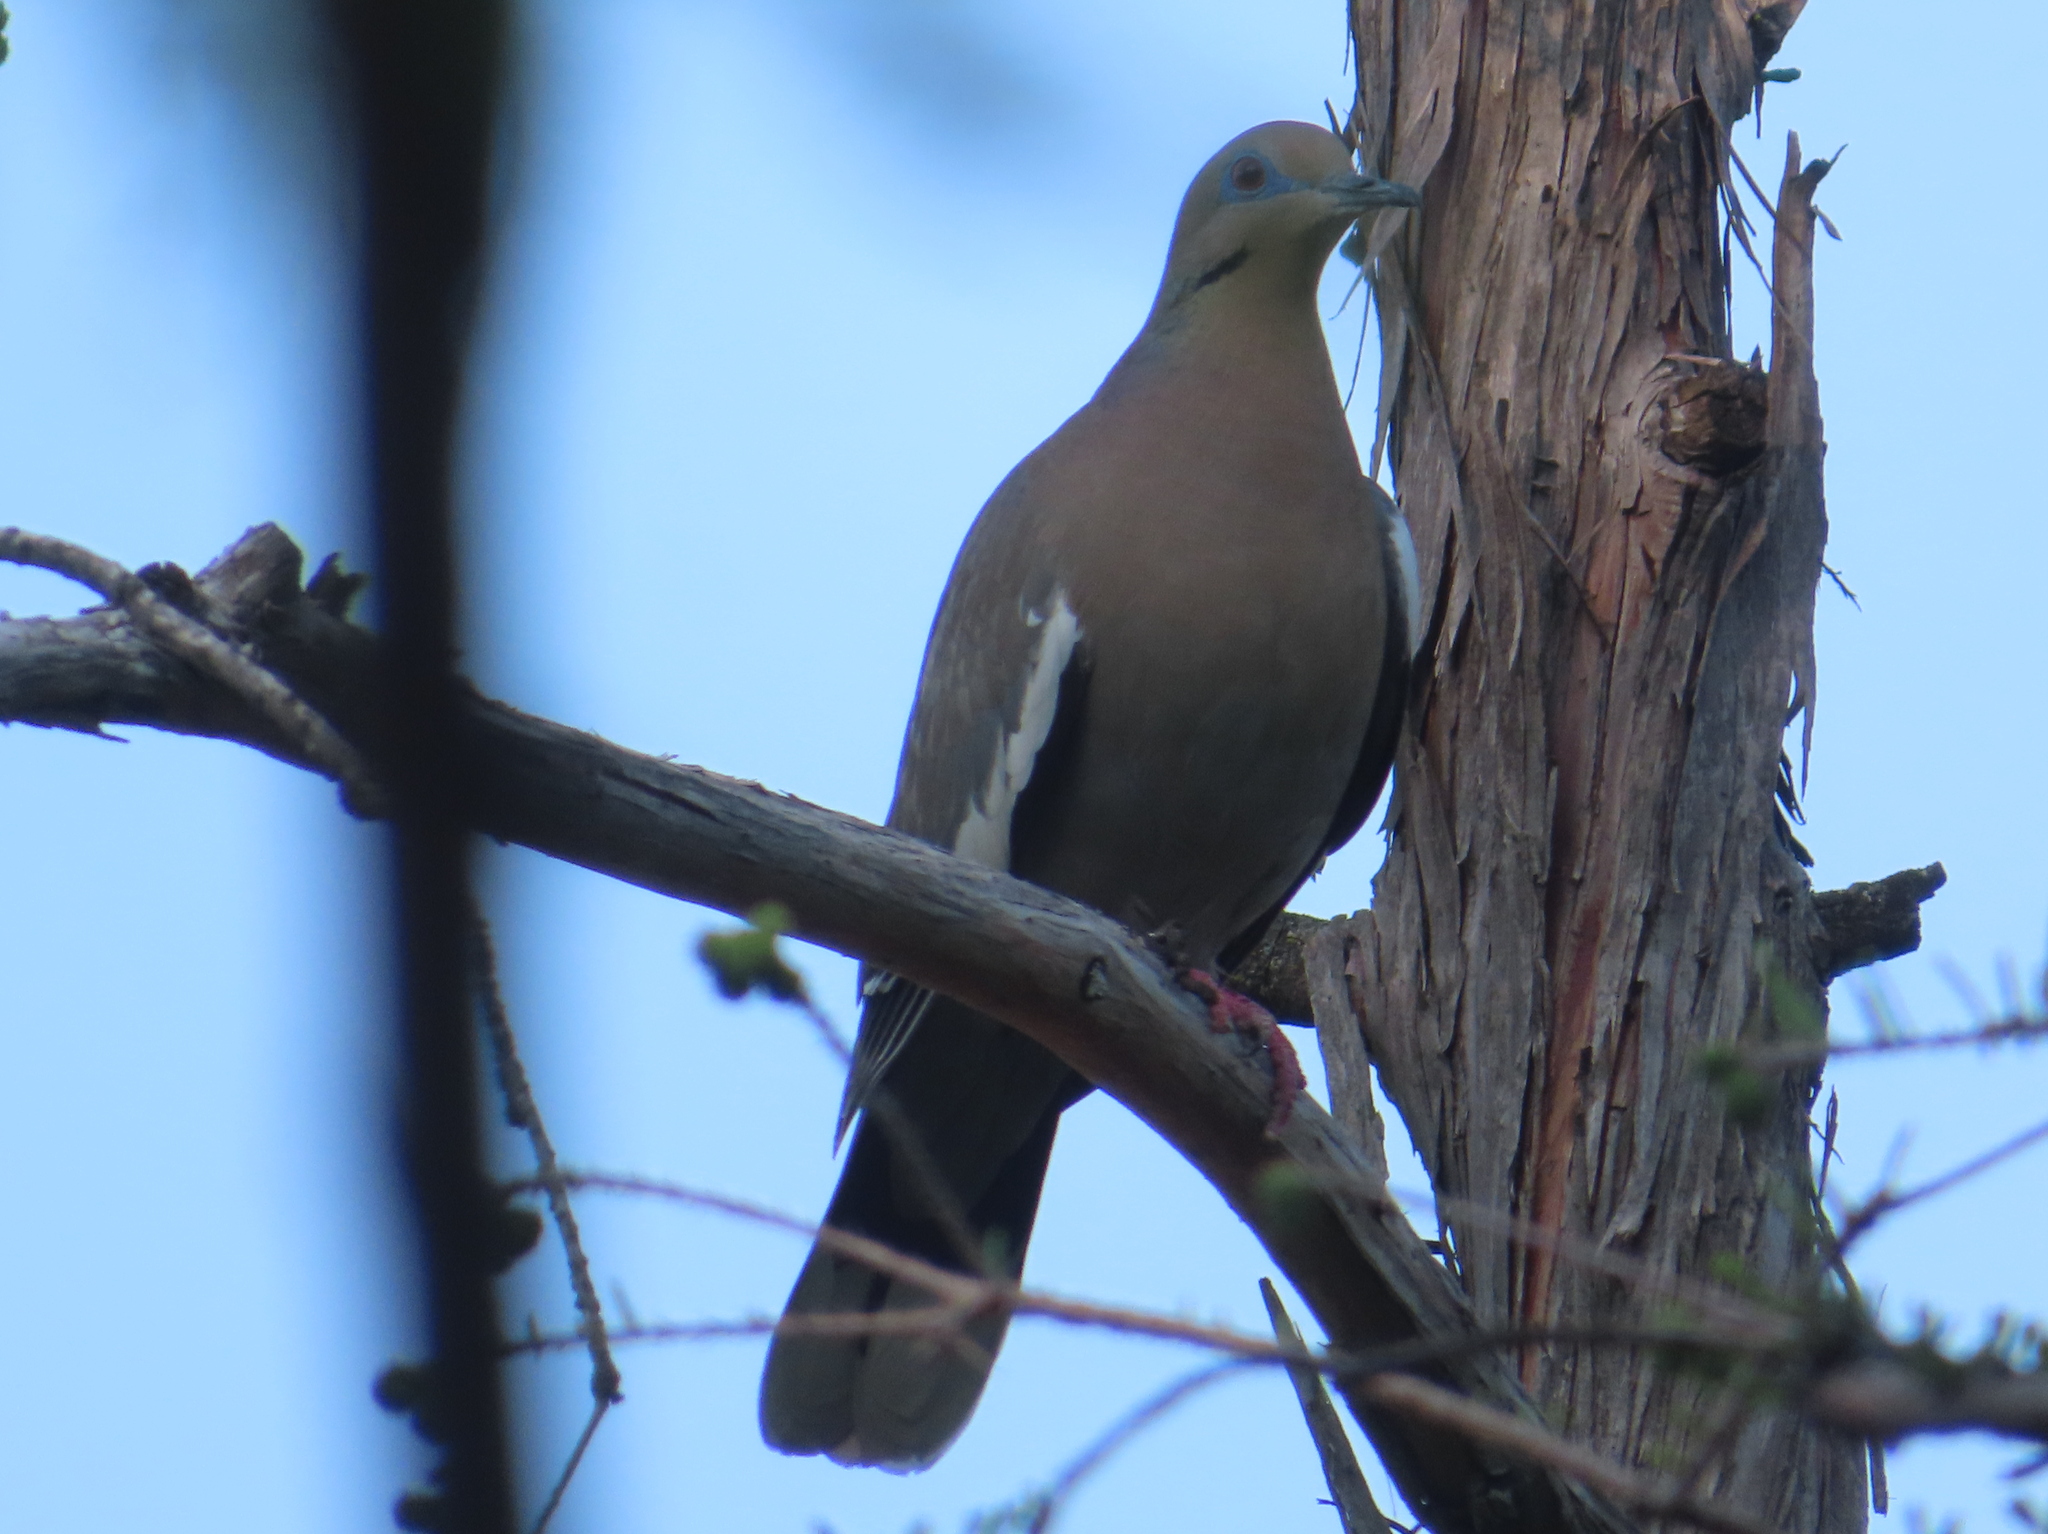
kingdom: Animalia
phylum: Chordata
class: Aves
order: Columbiformes
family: Columbidae
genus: Zenaida
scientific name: Zenaida asiatica
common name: White-winged dove
